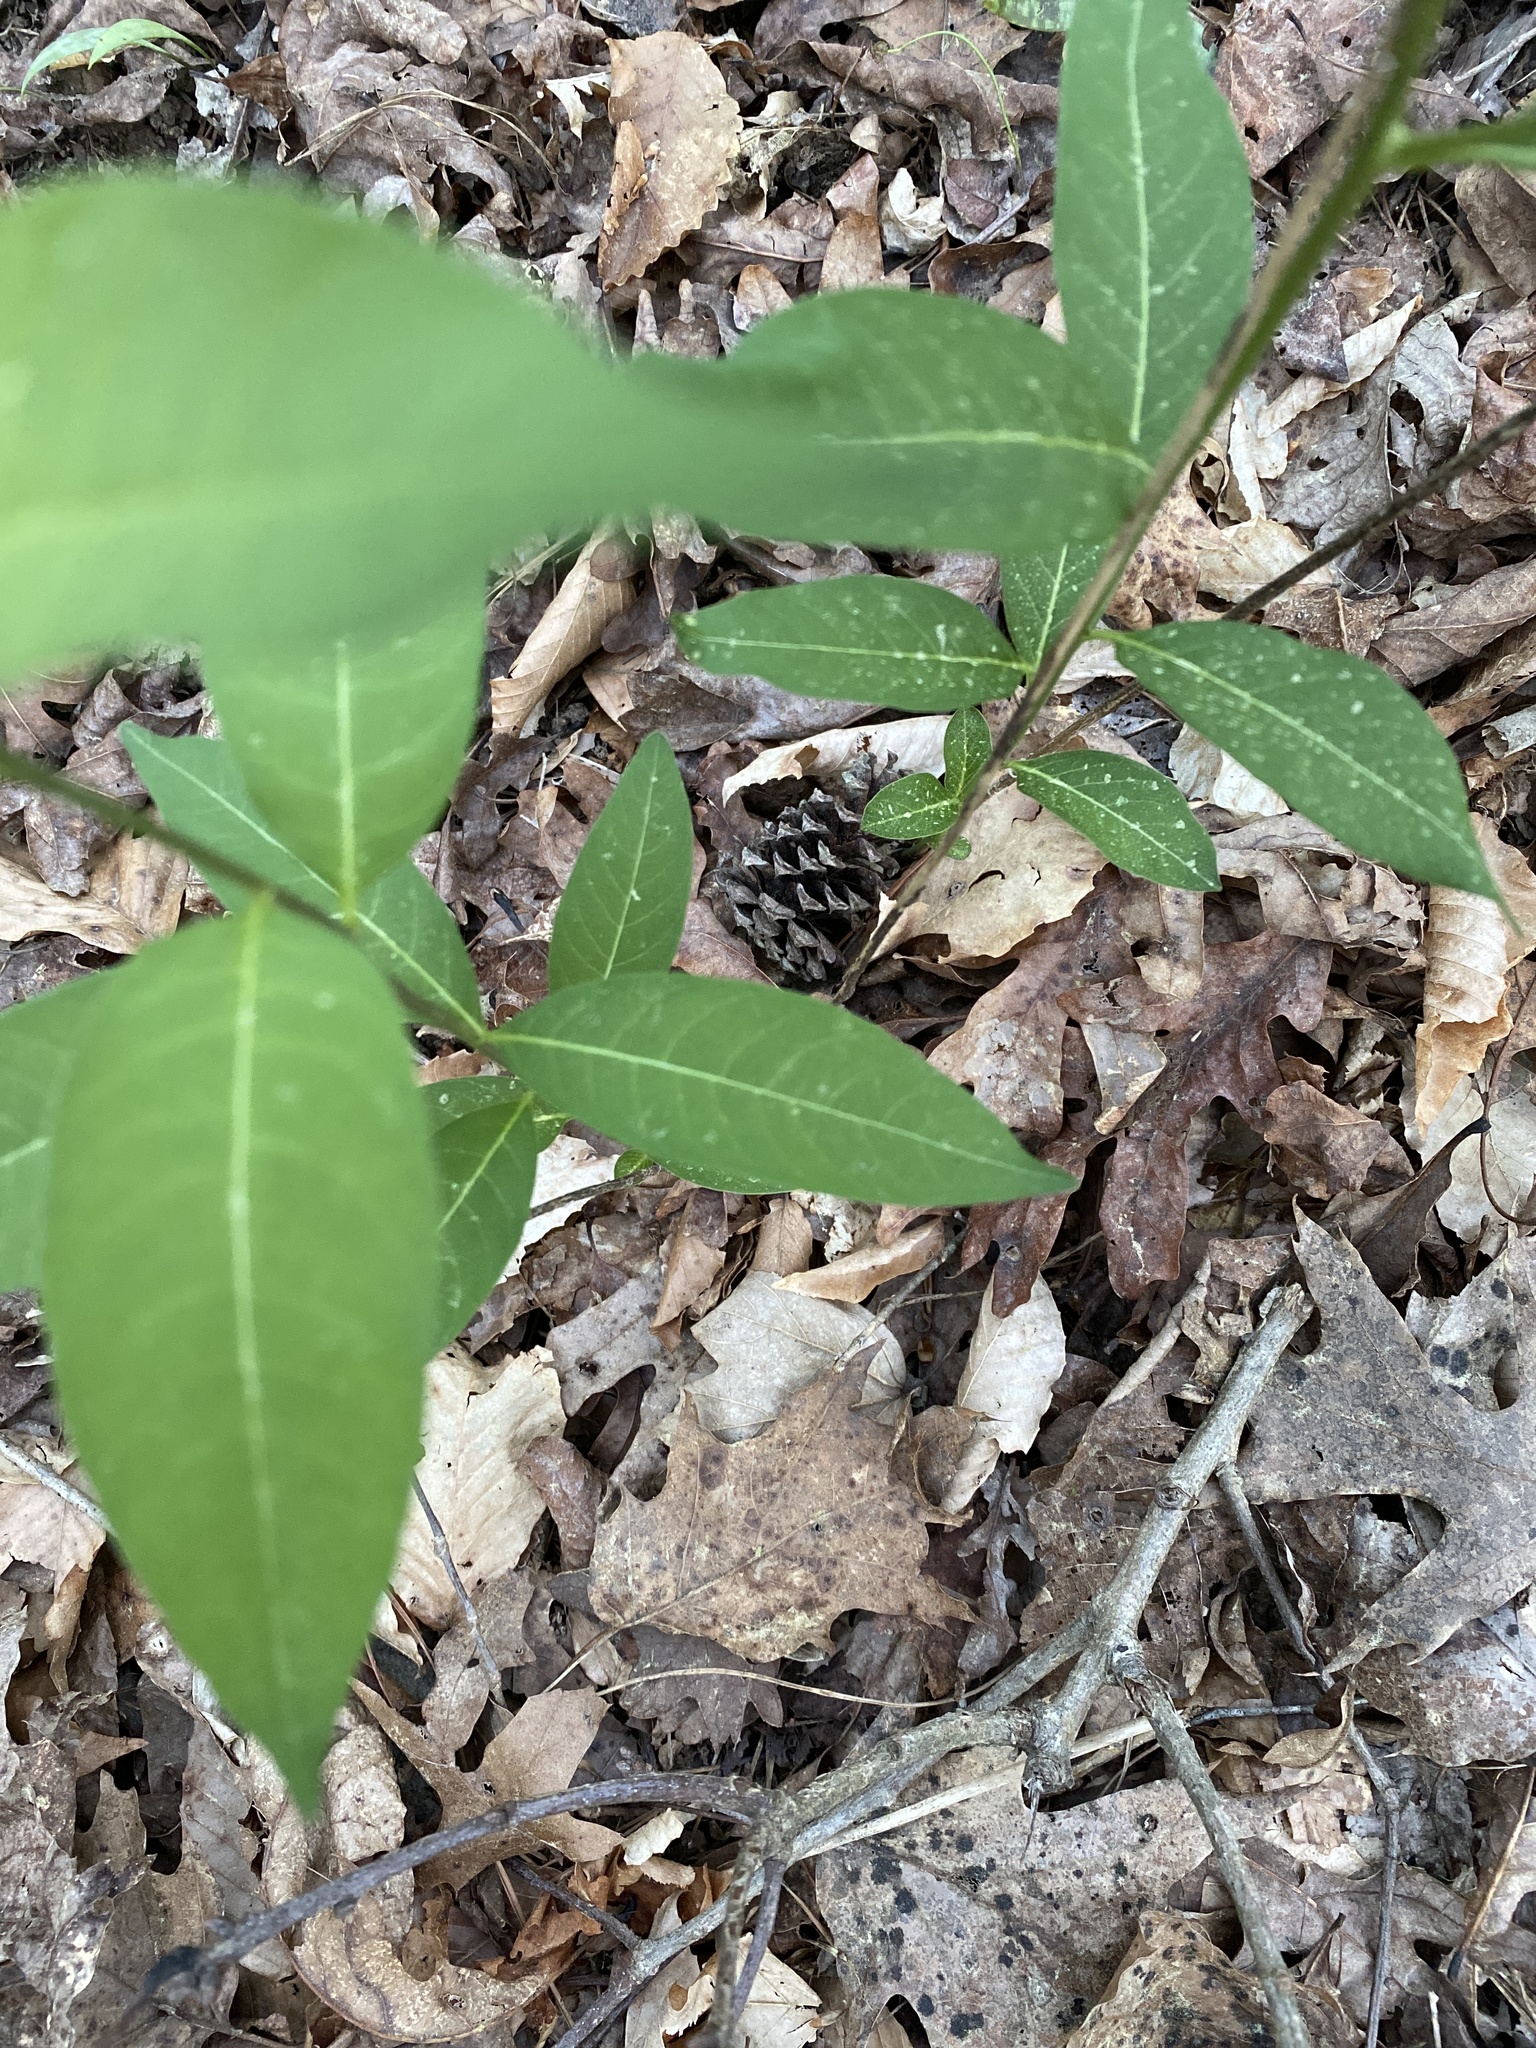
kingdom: Plantae
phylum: Tracheophyta
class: Magnoliopsida
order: Gentianales
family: Apocynaceae
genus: Amsonia
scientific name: Amsonia tabernaemontana
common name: Texas-star
